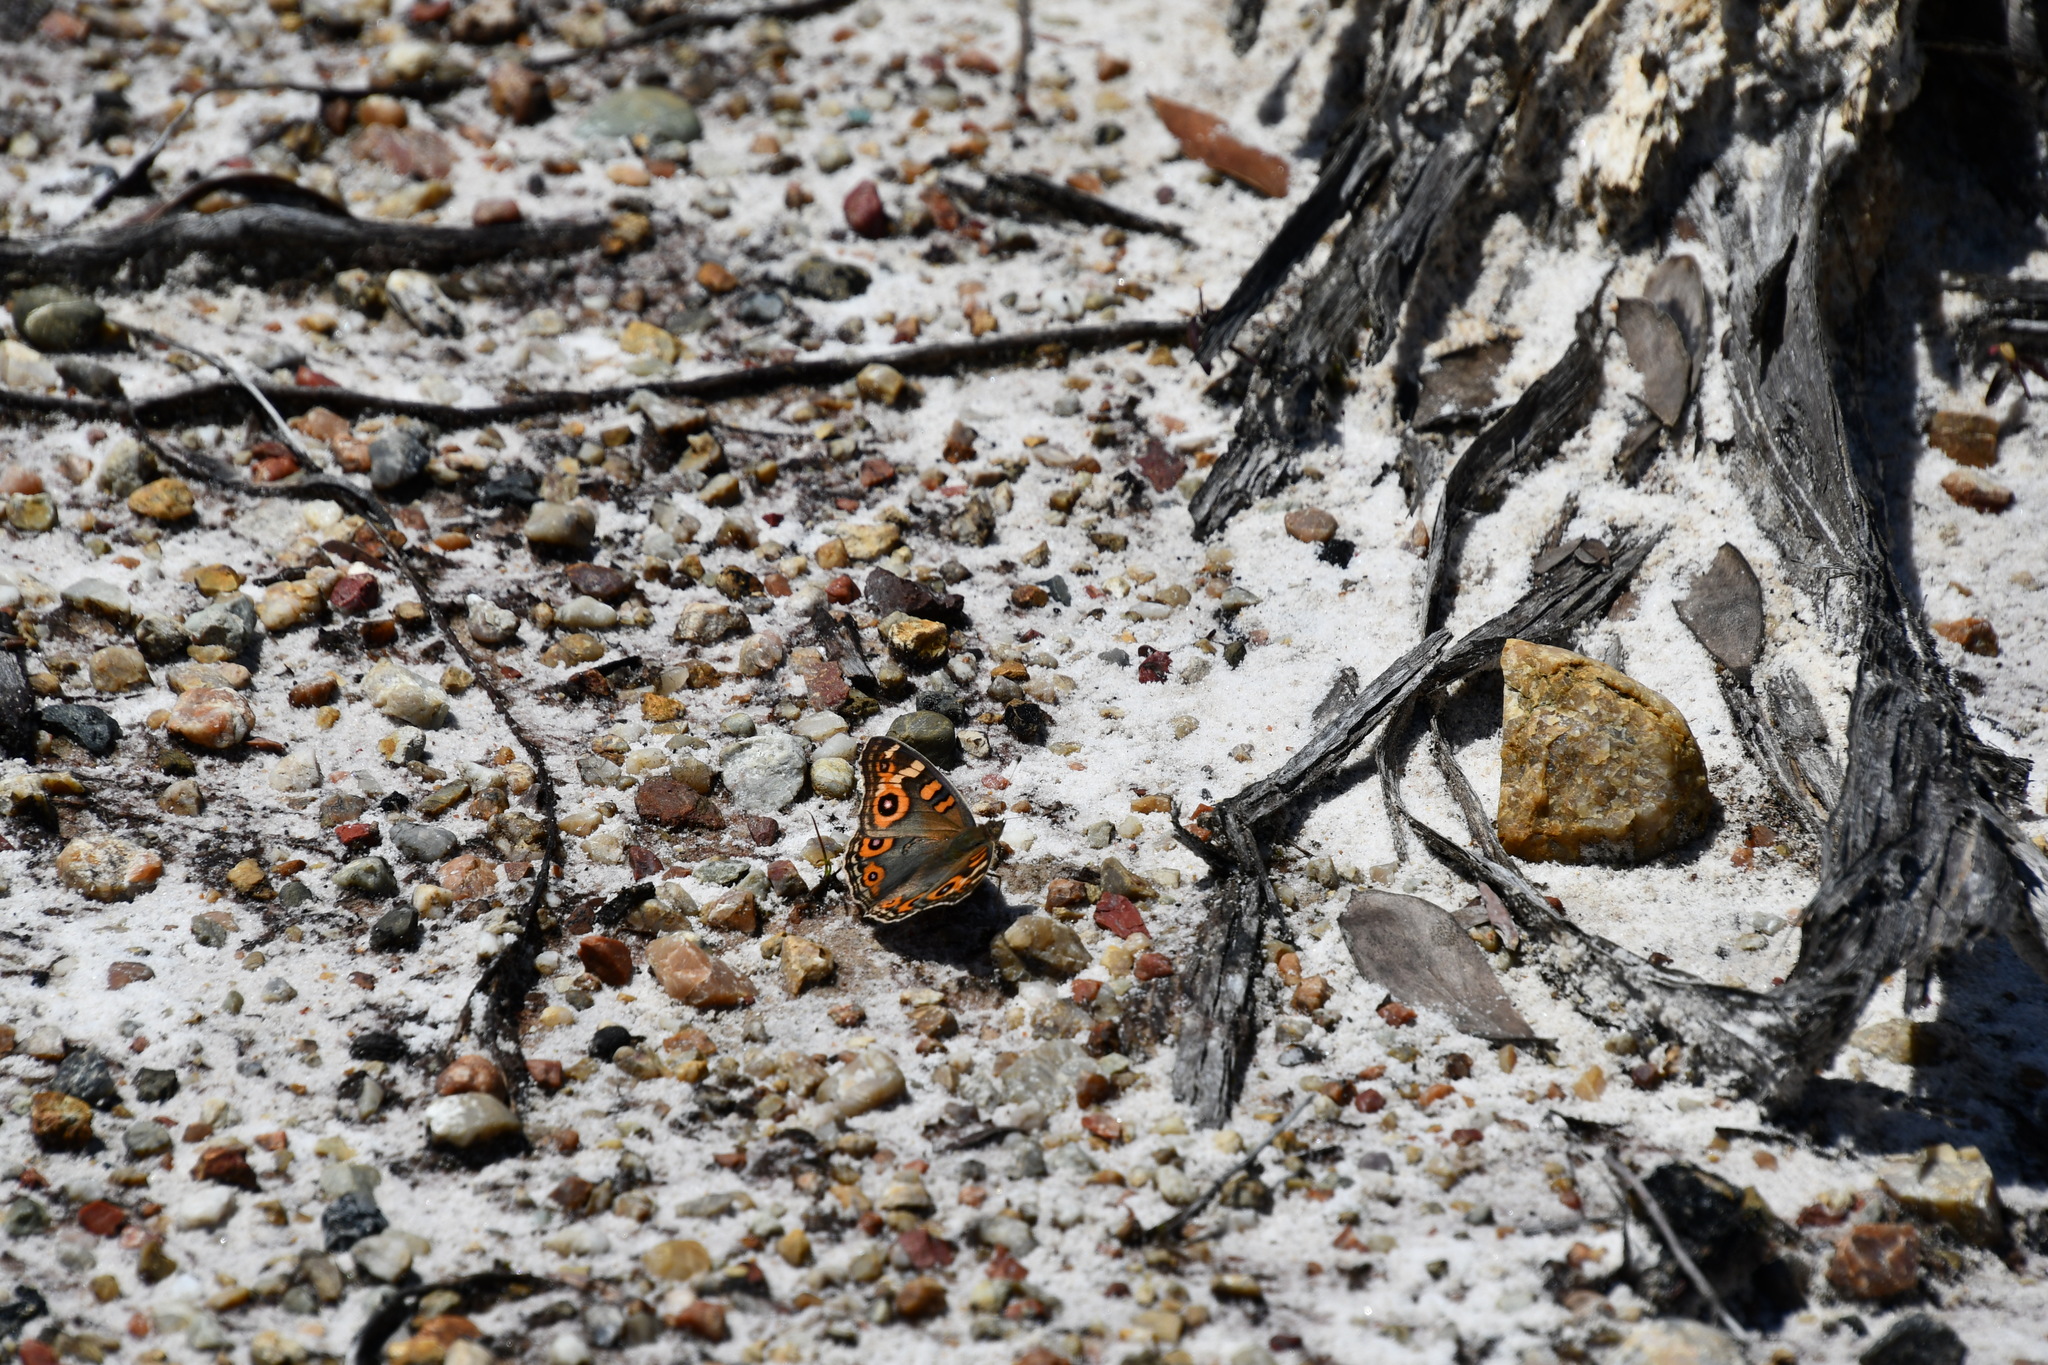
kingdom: Animalia
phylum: Arthropoda
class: Insecta
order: Lepidoptera
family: Nymphalidae
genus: Junonia
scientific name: Junonia villida
